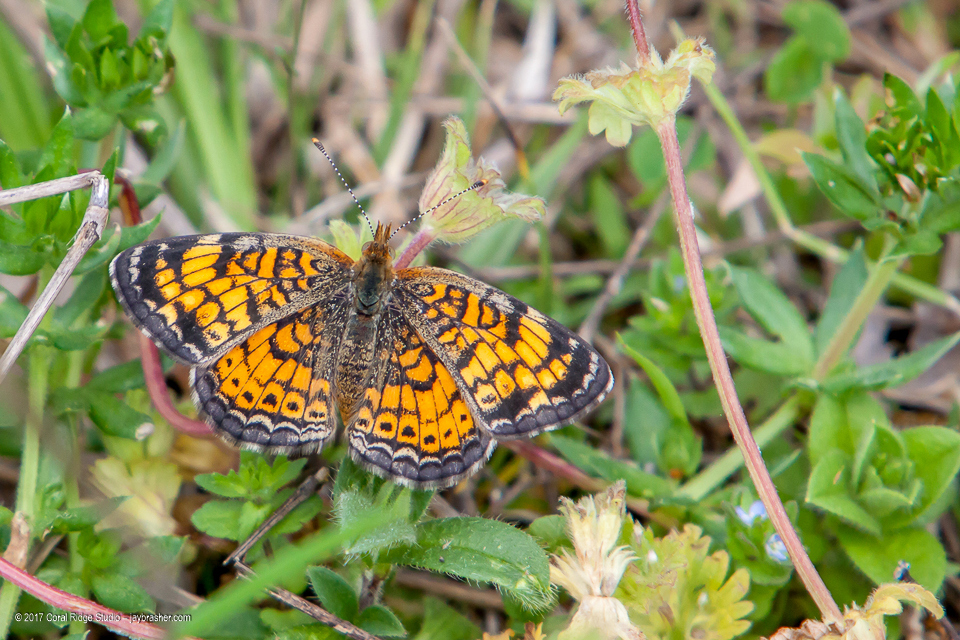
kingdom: Animalia
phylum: Arthropoda
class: Insecta
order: Lepidoptera
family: Nymphalidae
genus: Phyciodes
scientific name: Phyciodes tharos
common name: Pearl crescent
